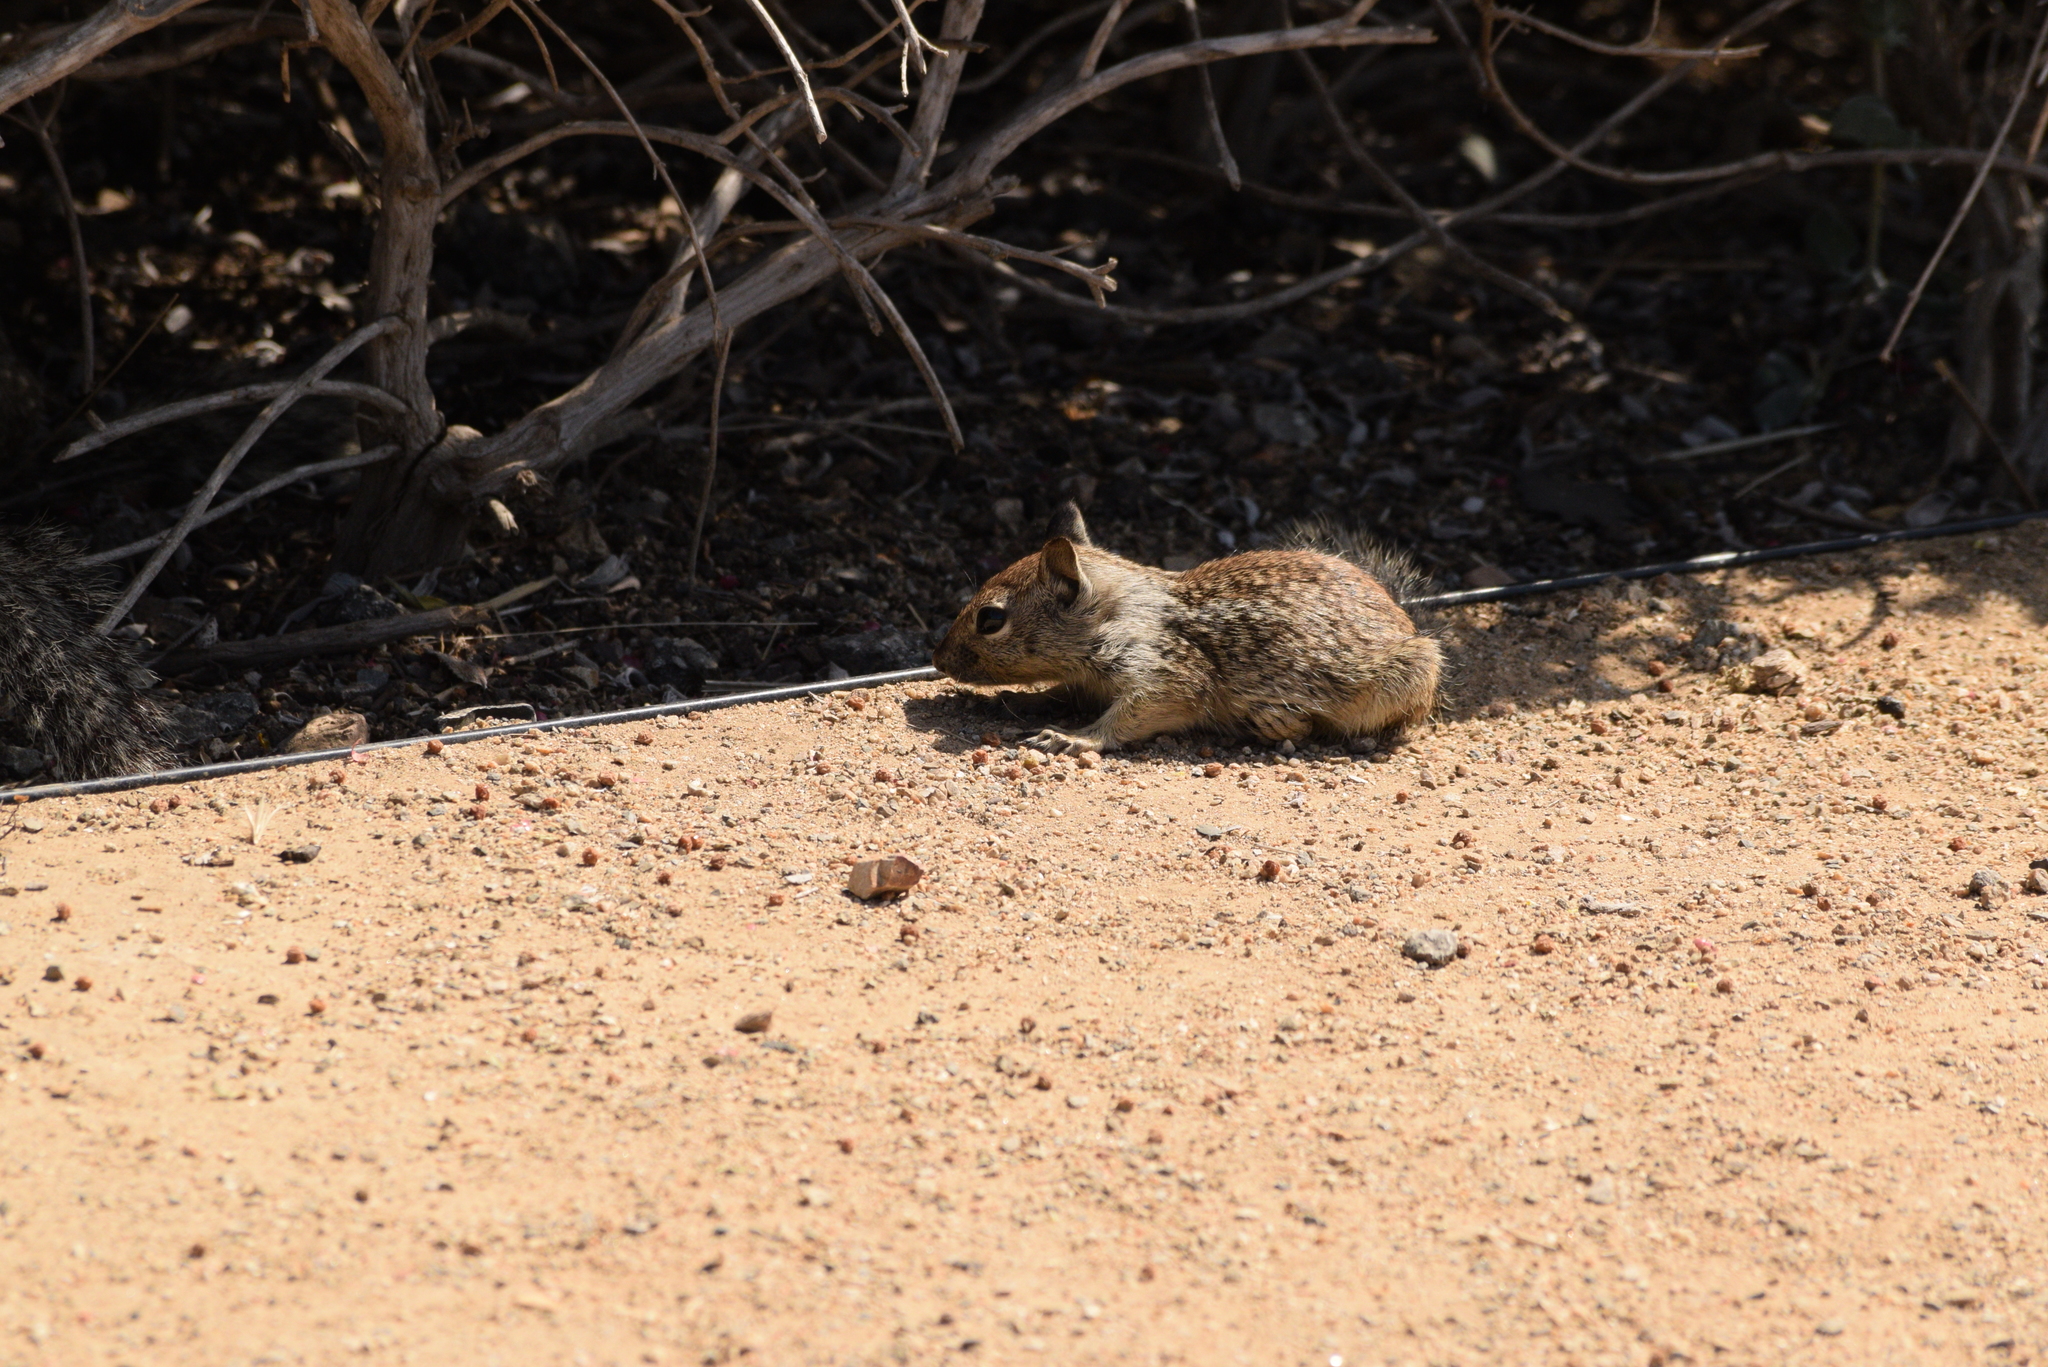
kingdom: Animalia
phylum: Chordata
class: Mammalia
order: Rodentia
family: Sciuridae
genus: Otospermophilus
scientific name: Otospermophilus beecheyi
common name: California ground squirrel
